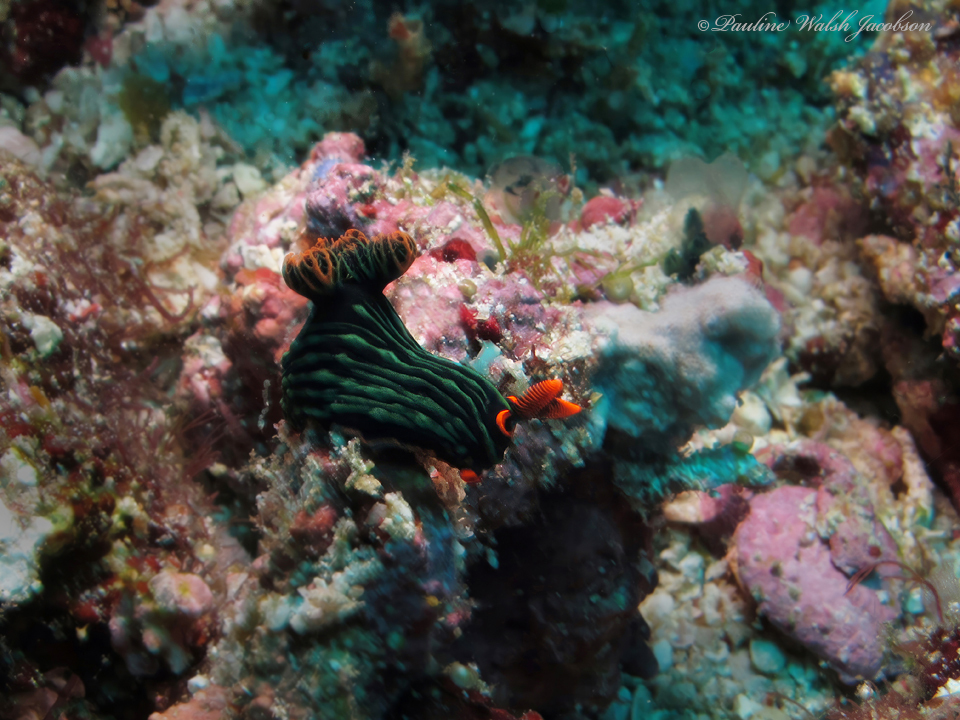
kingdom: Animalia
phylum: Mollusca
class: Gastropoda
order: Nudibranchia
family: Polyceridae
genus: Nembrotha
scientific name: Nembrotha kubaryana
